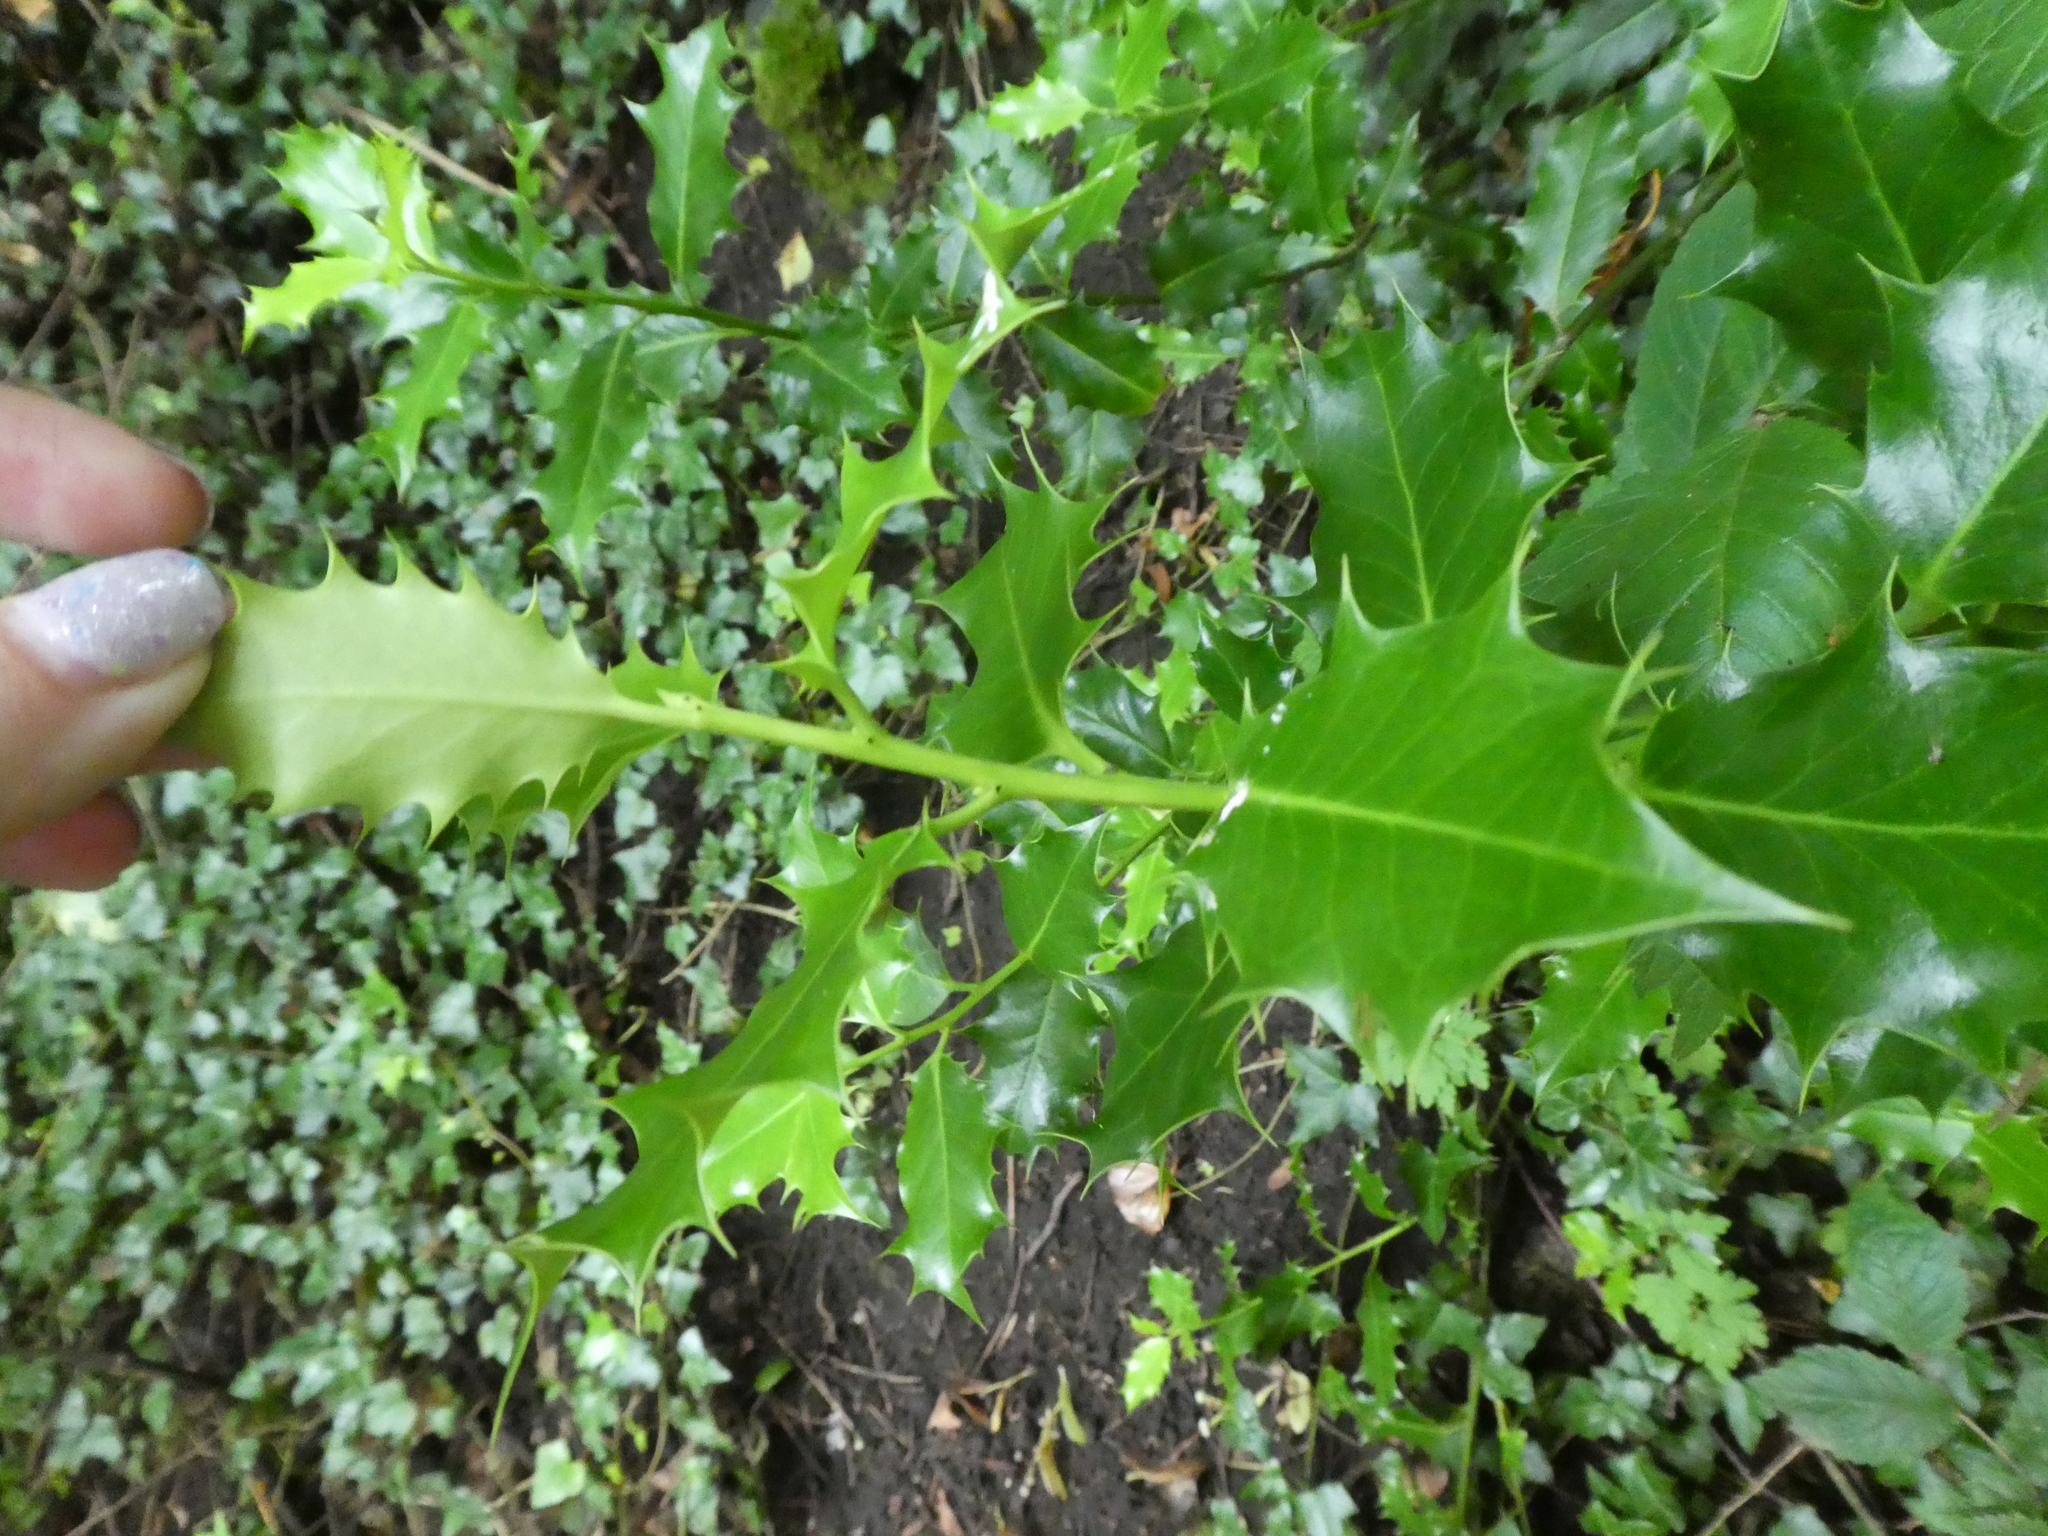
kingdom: Plantae
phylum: Tracheophyta
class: Magnoliopsida
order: Aquifoliales
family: Aquifoliaceae
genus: Ilex
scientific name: Ilex aquifolium
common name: English holly
